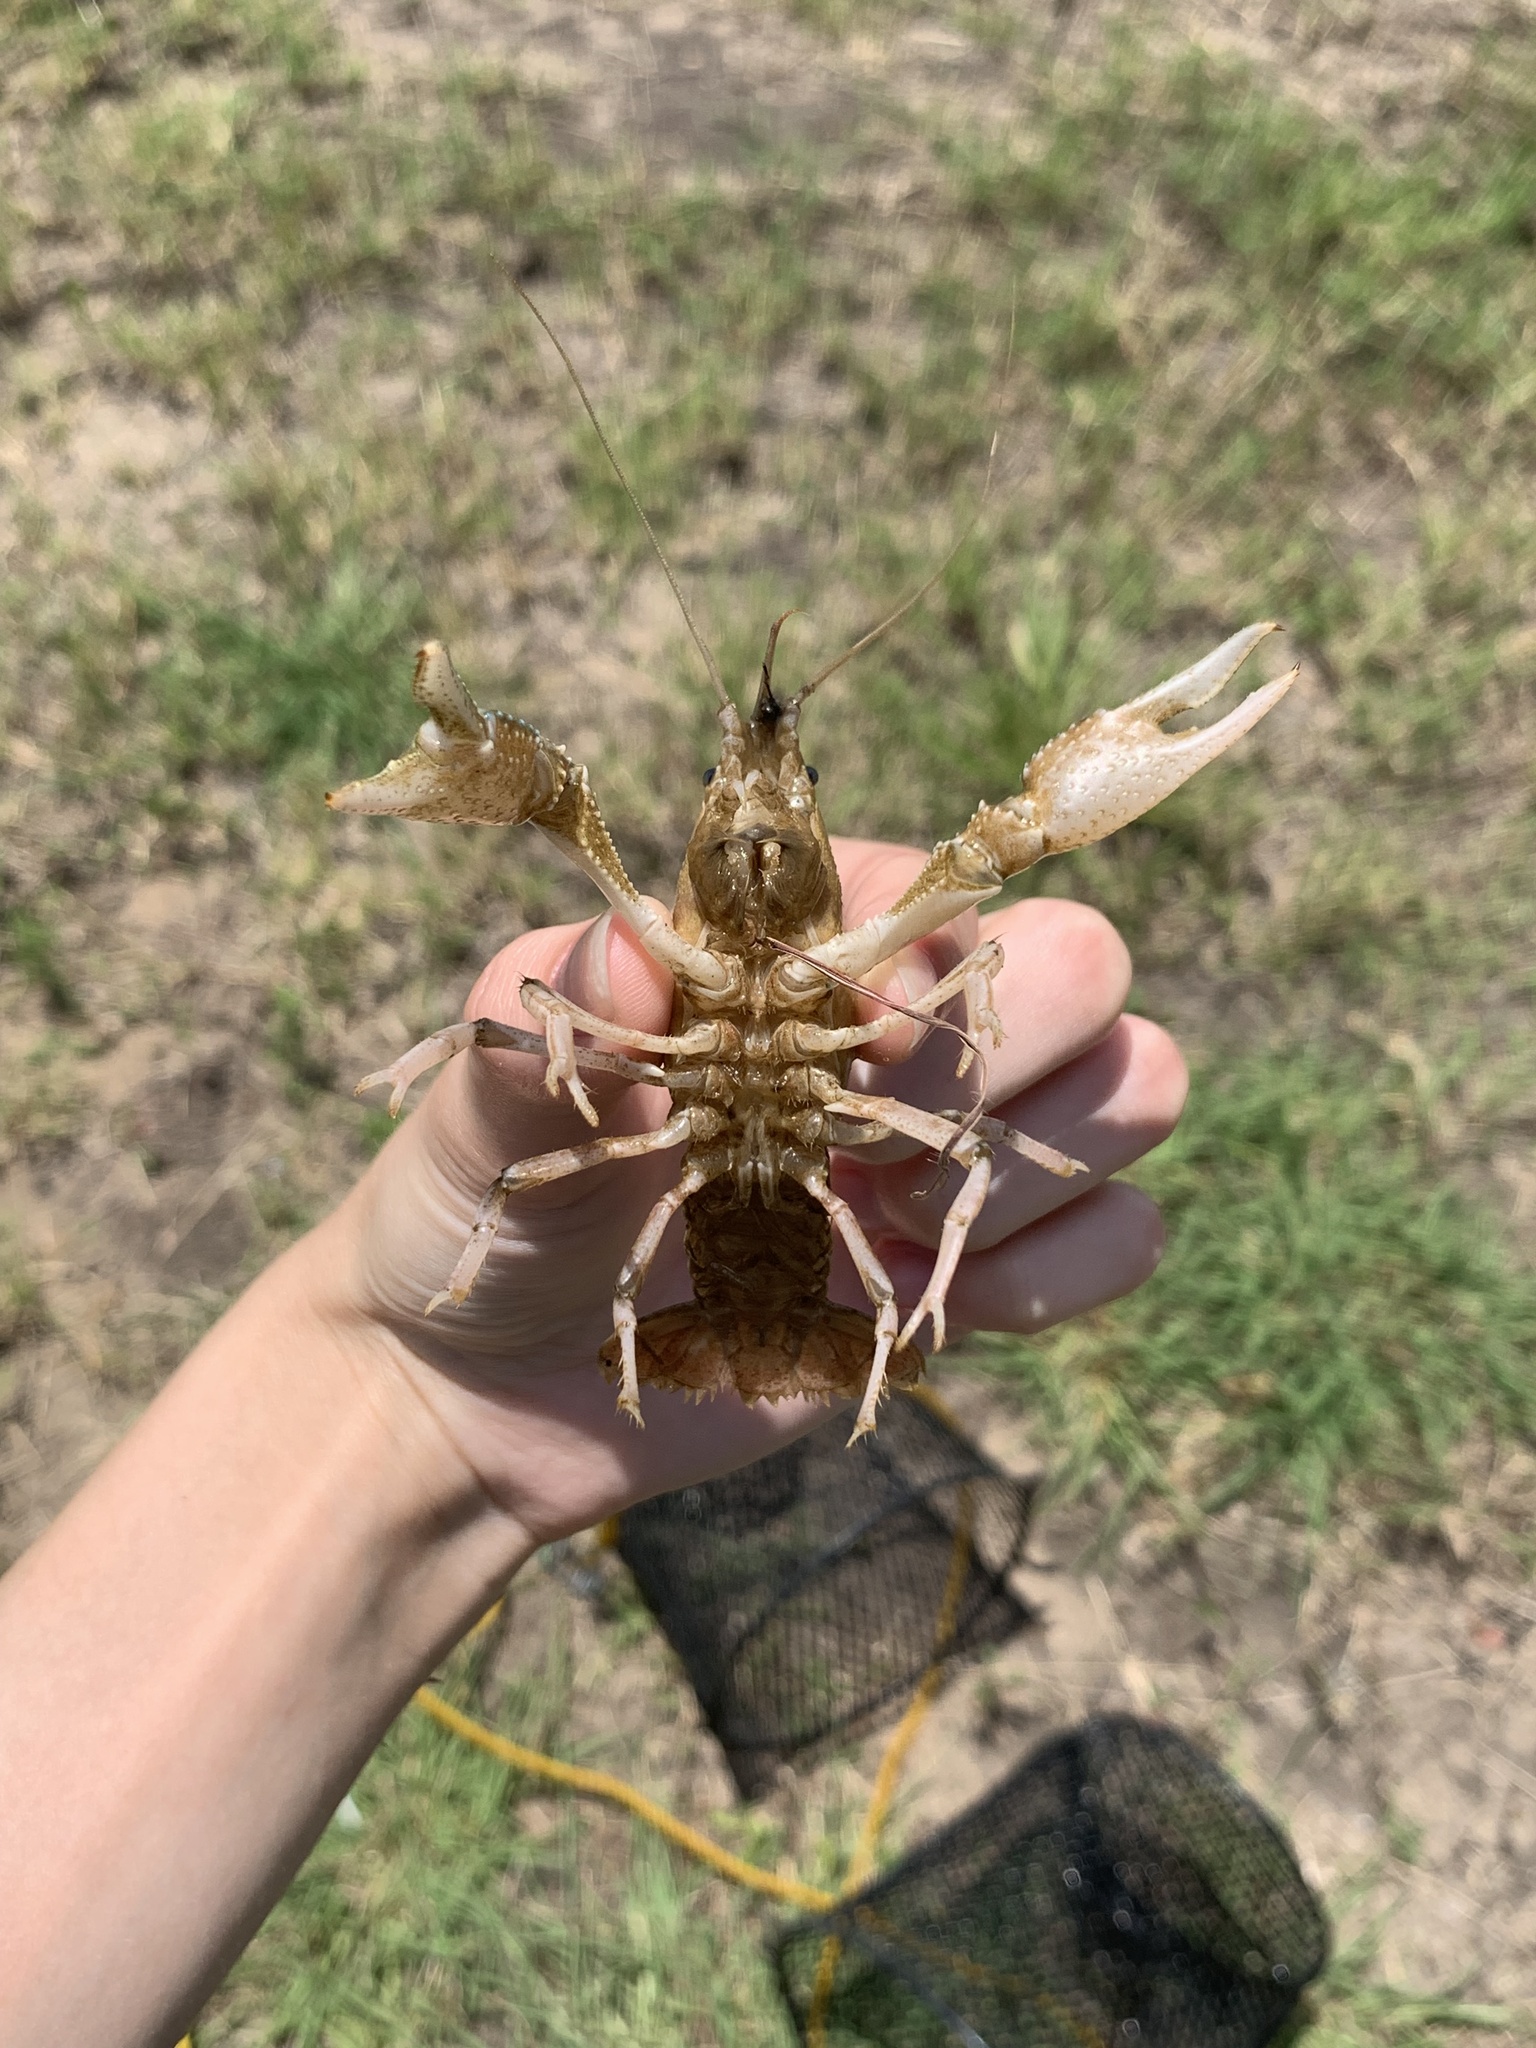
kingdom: Animalia
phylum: Arthropoda
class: Malacostraca
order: Decapoda
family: Cambaridae
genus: Procambarus
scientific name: Procambarus curdi
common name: Red river burrowing crayfish
